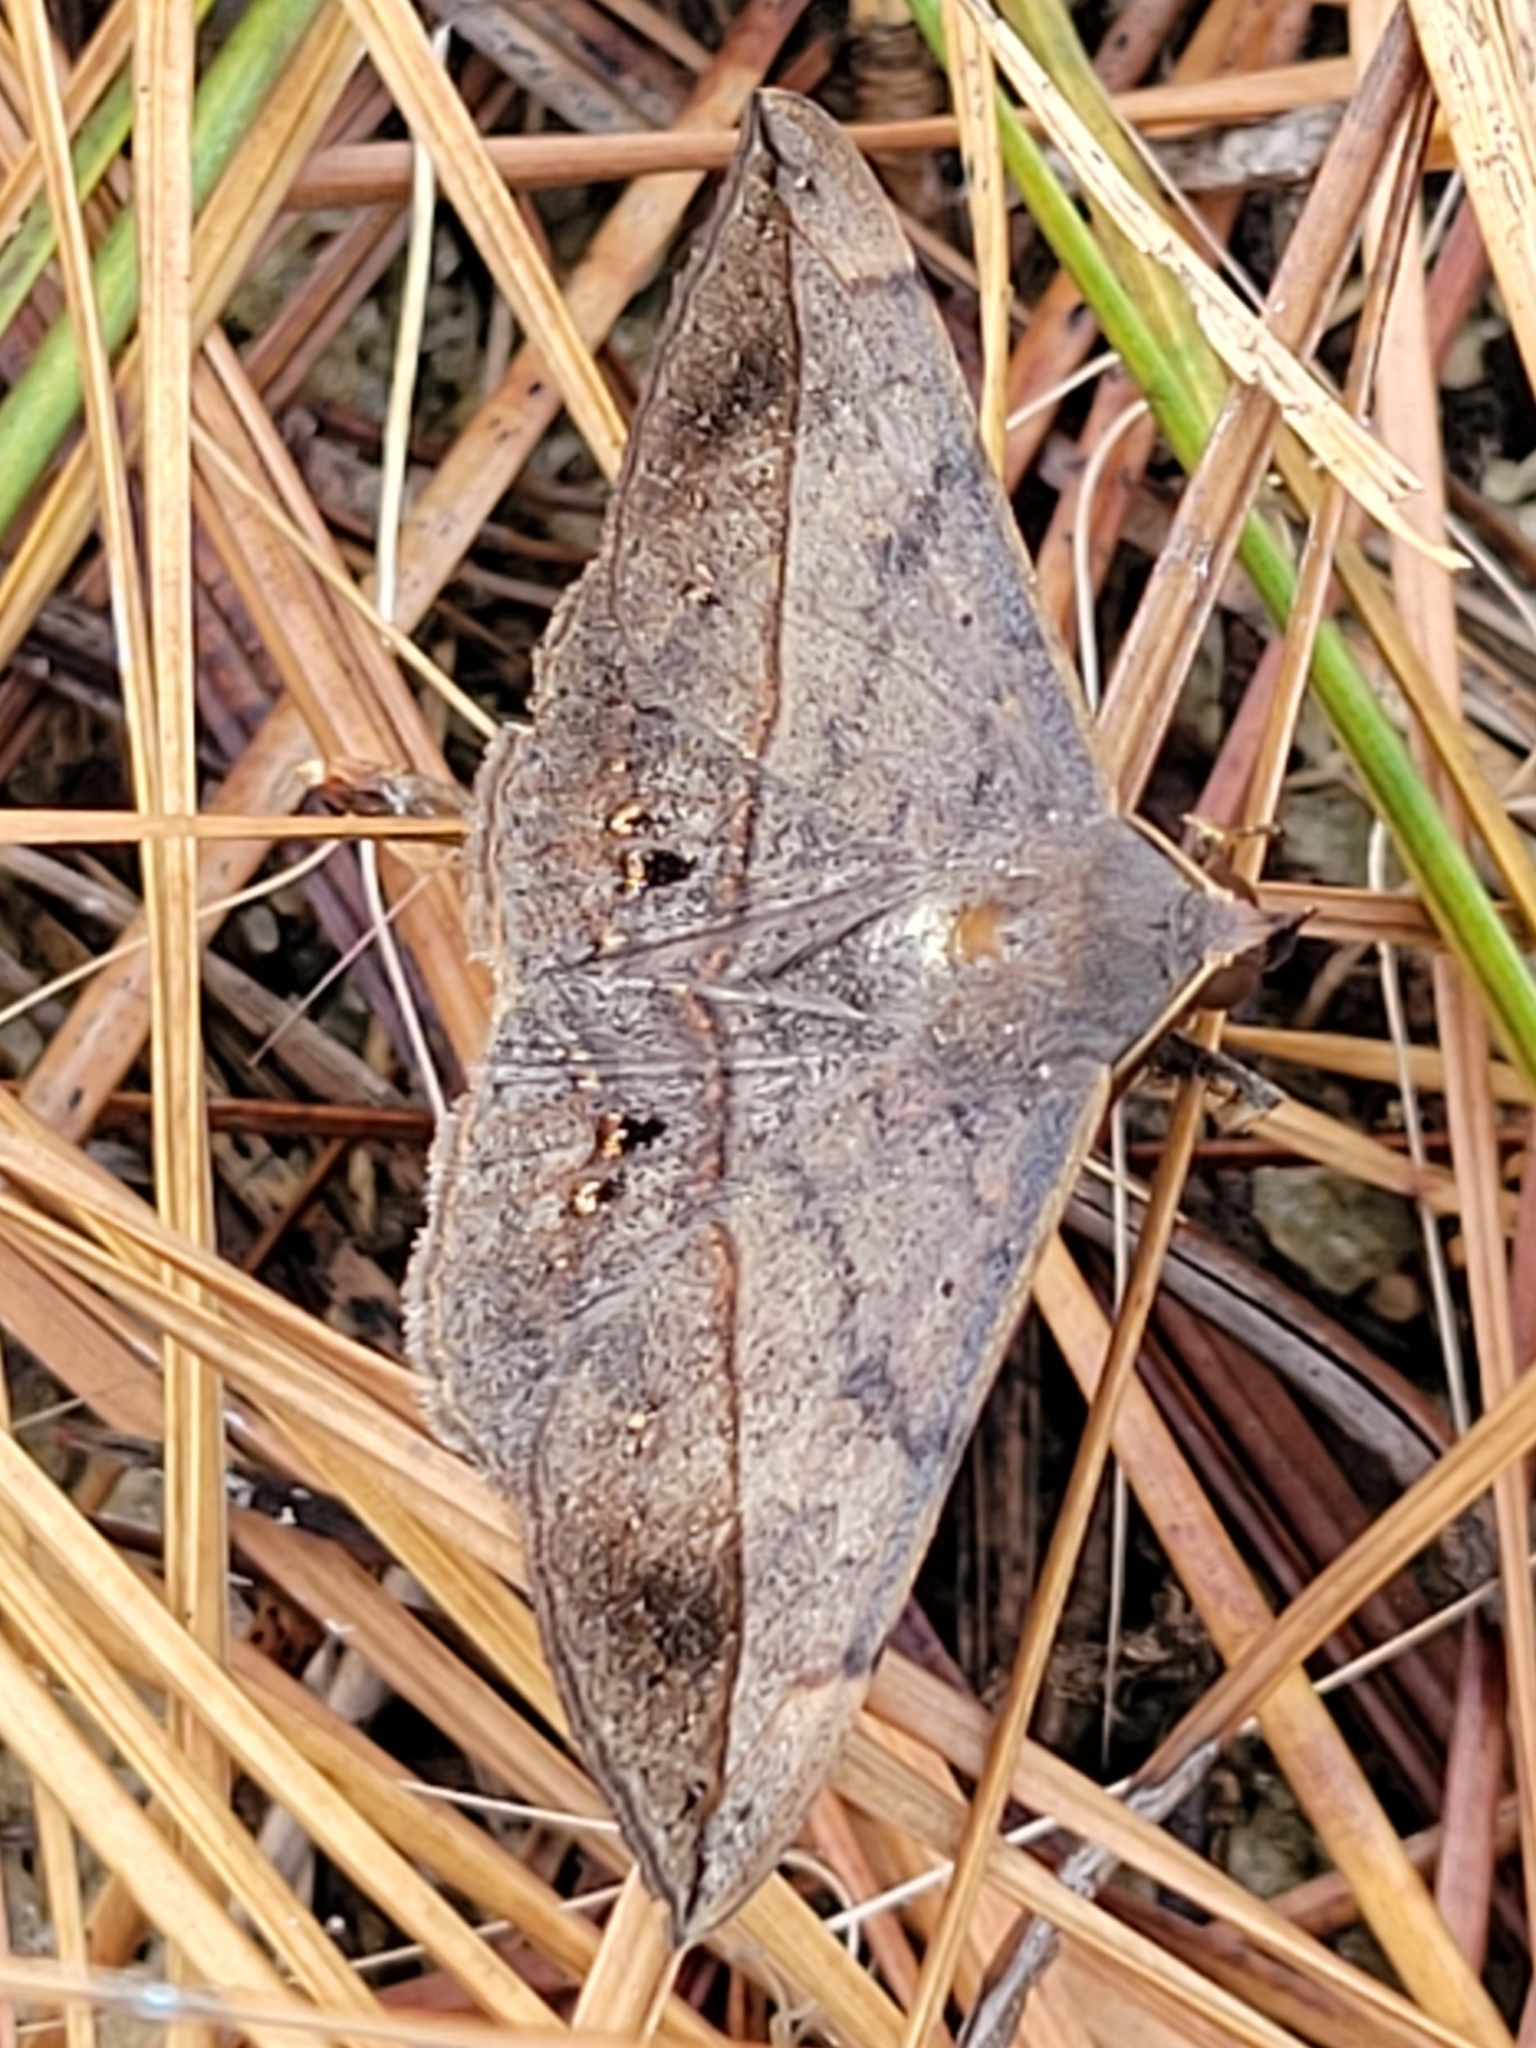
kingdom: Animalia
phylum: Arthropoda
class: Insecta
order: Lepidoptera
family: Erebidae
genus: Anticarsia
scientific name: Anticarsia gemmatalis
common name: Cutworm moth
